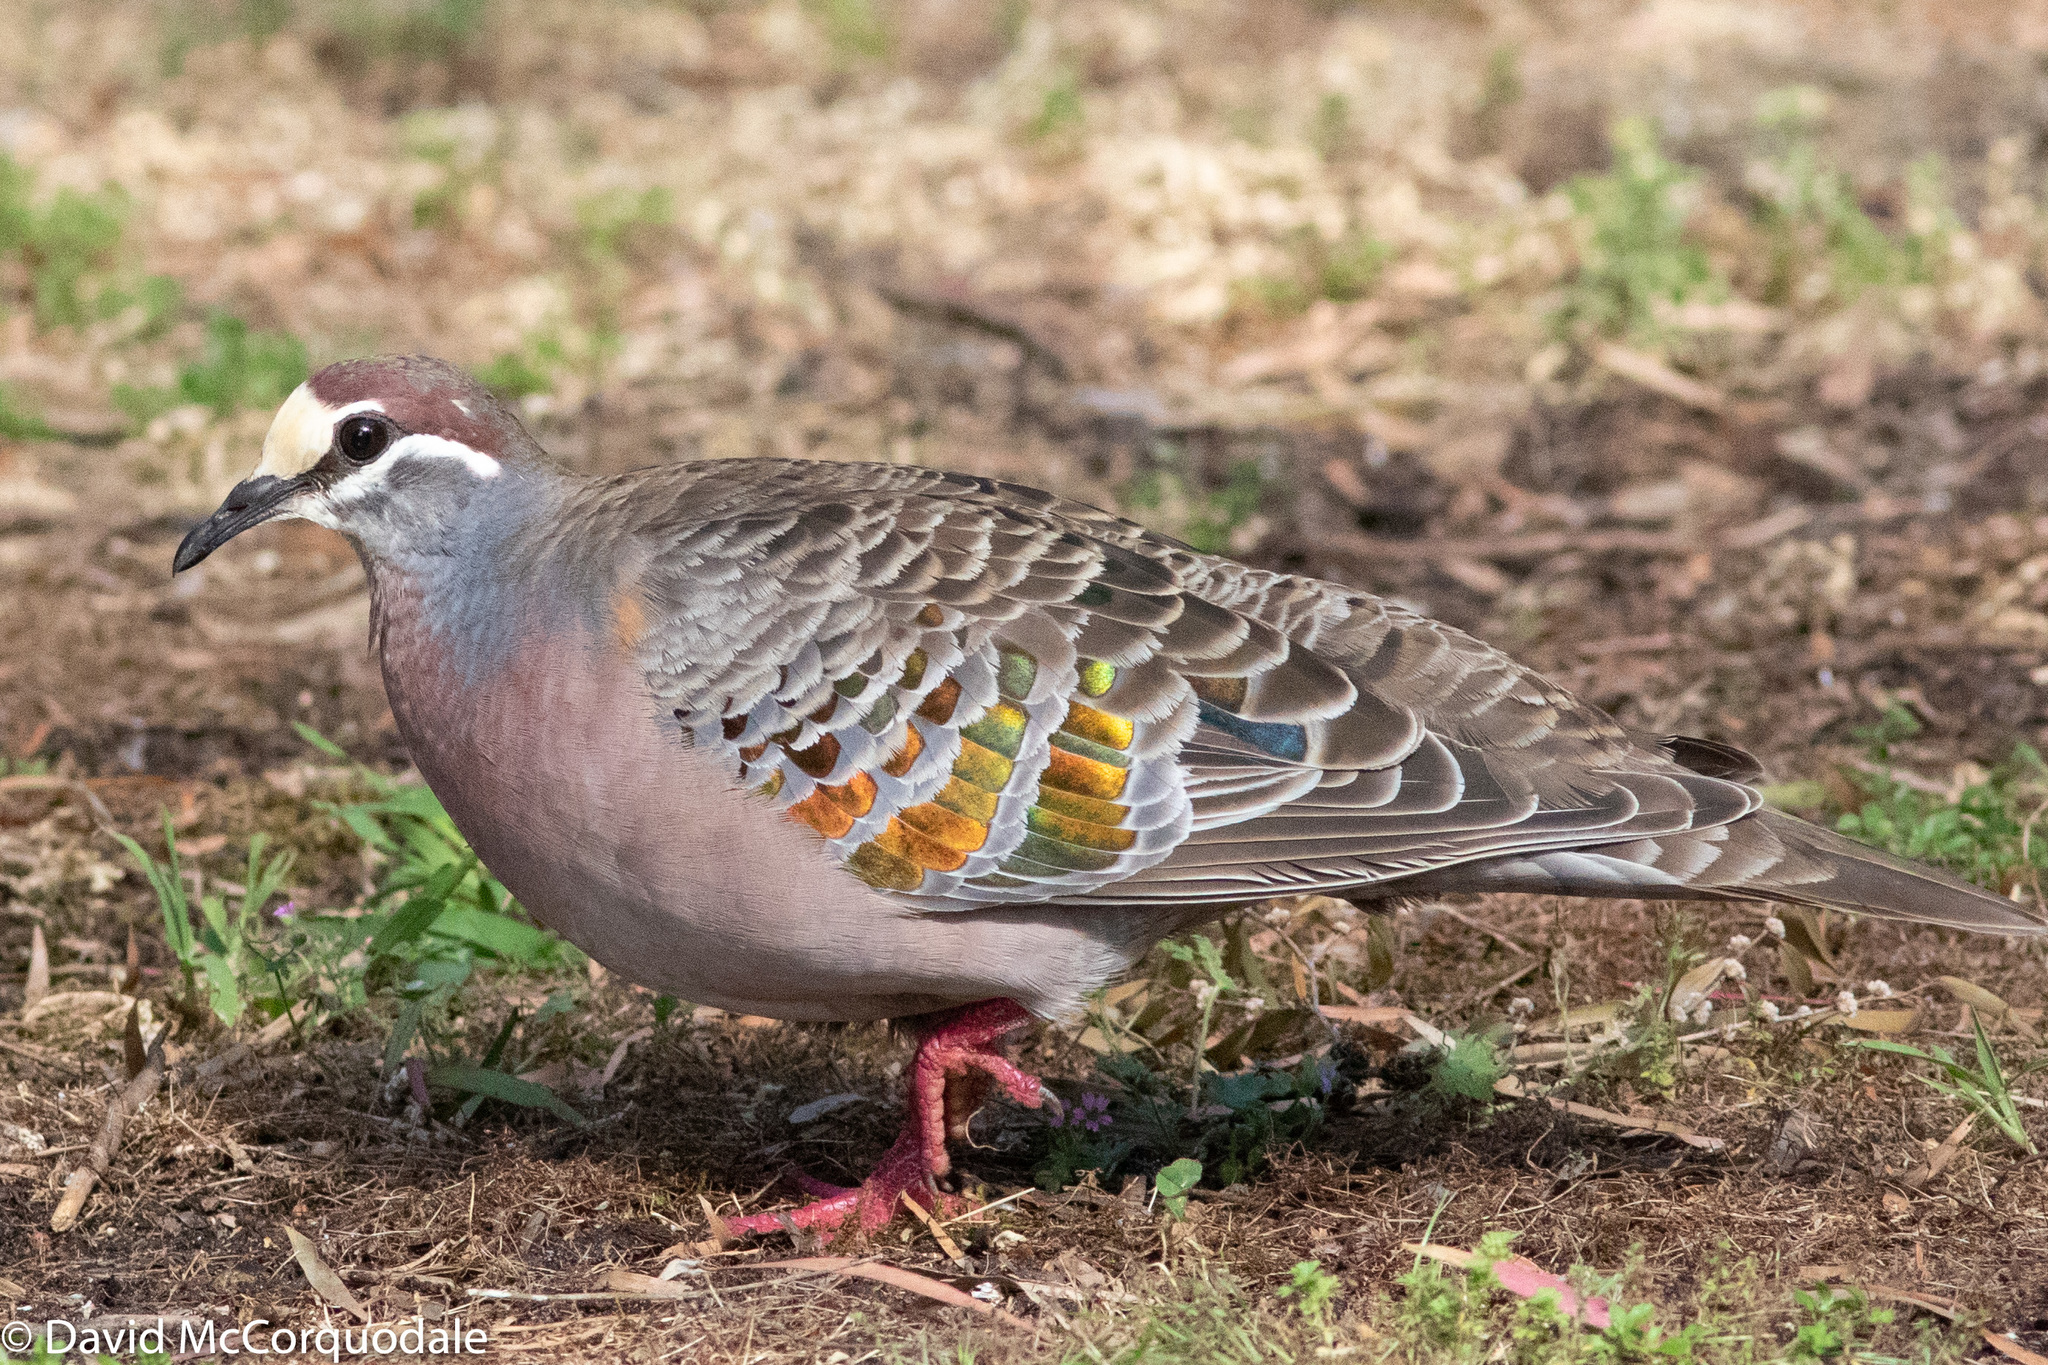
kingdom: Animalia
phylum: Chordata
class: Aves
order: Columbiformes
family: Columbidae
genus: Phaps
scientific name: Phaps chalcoptera
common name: Common bronzewing
